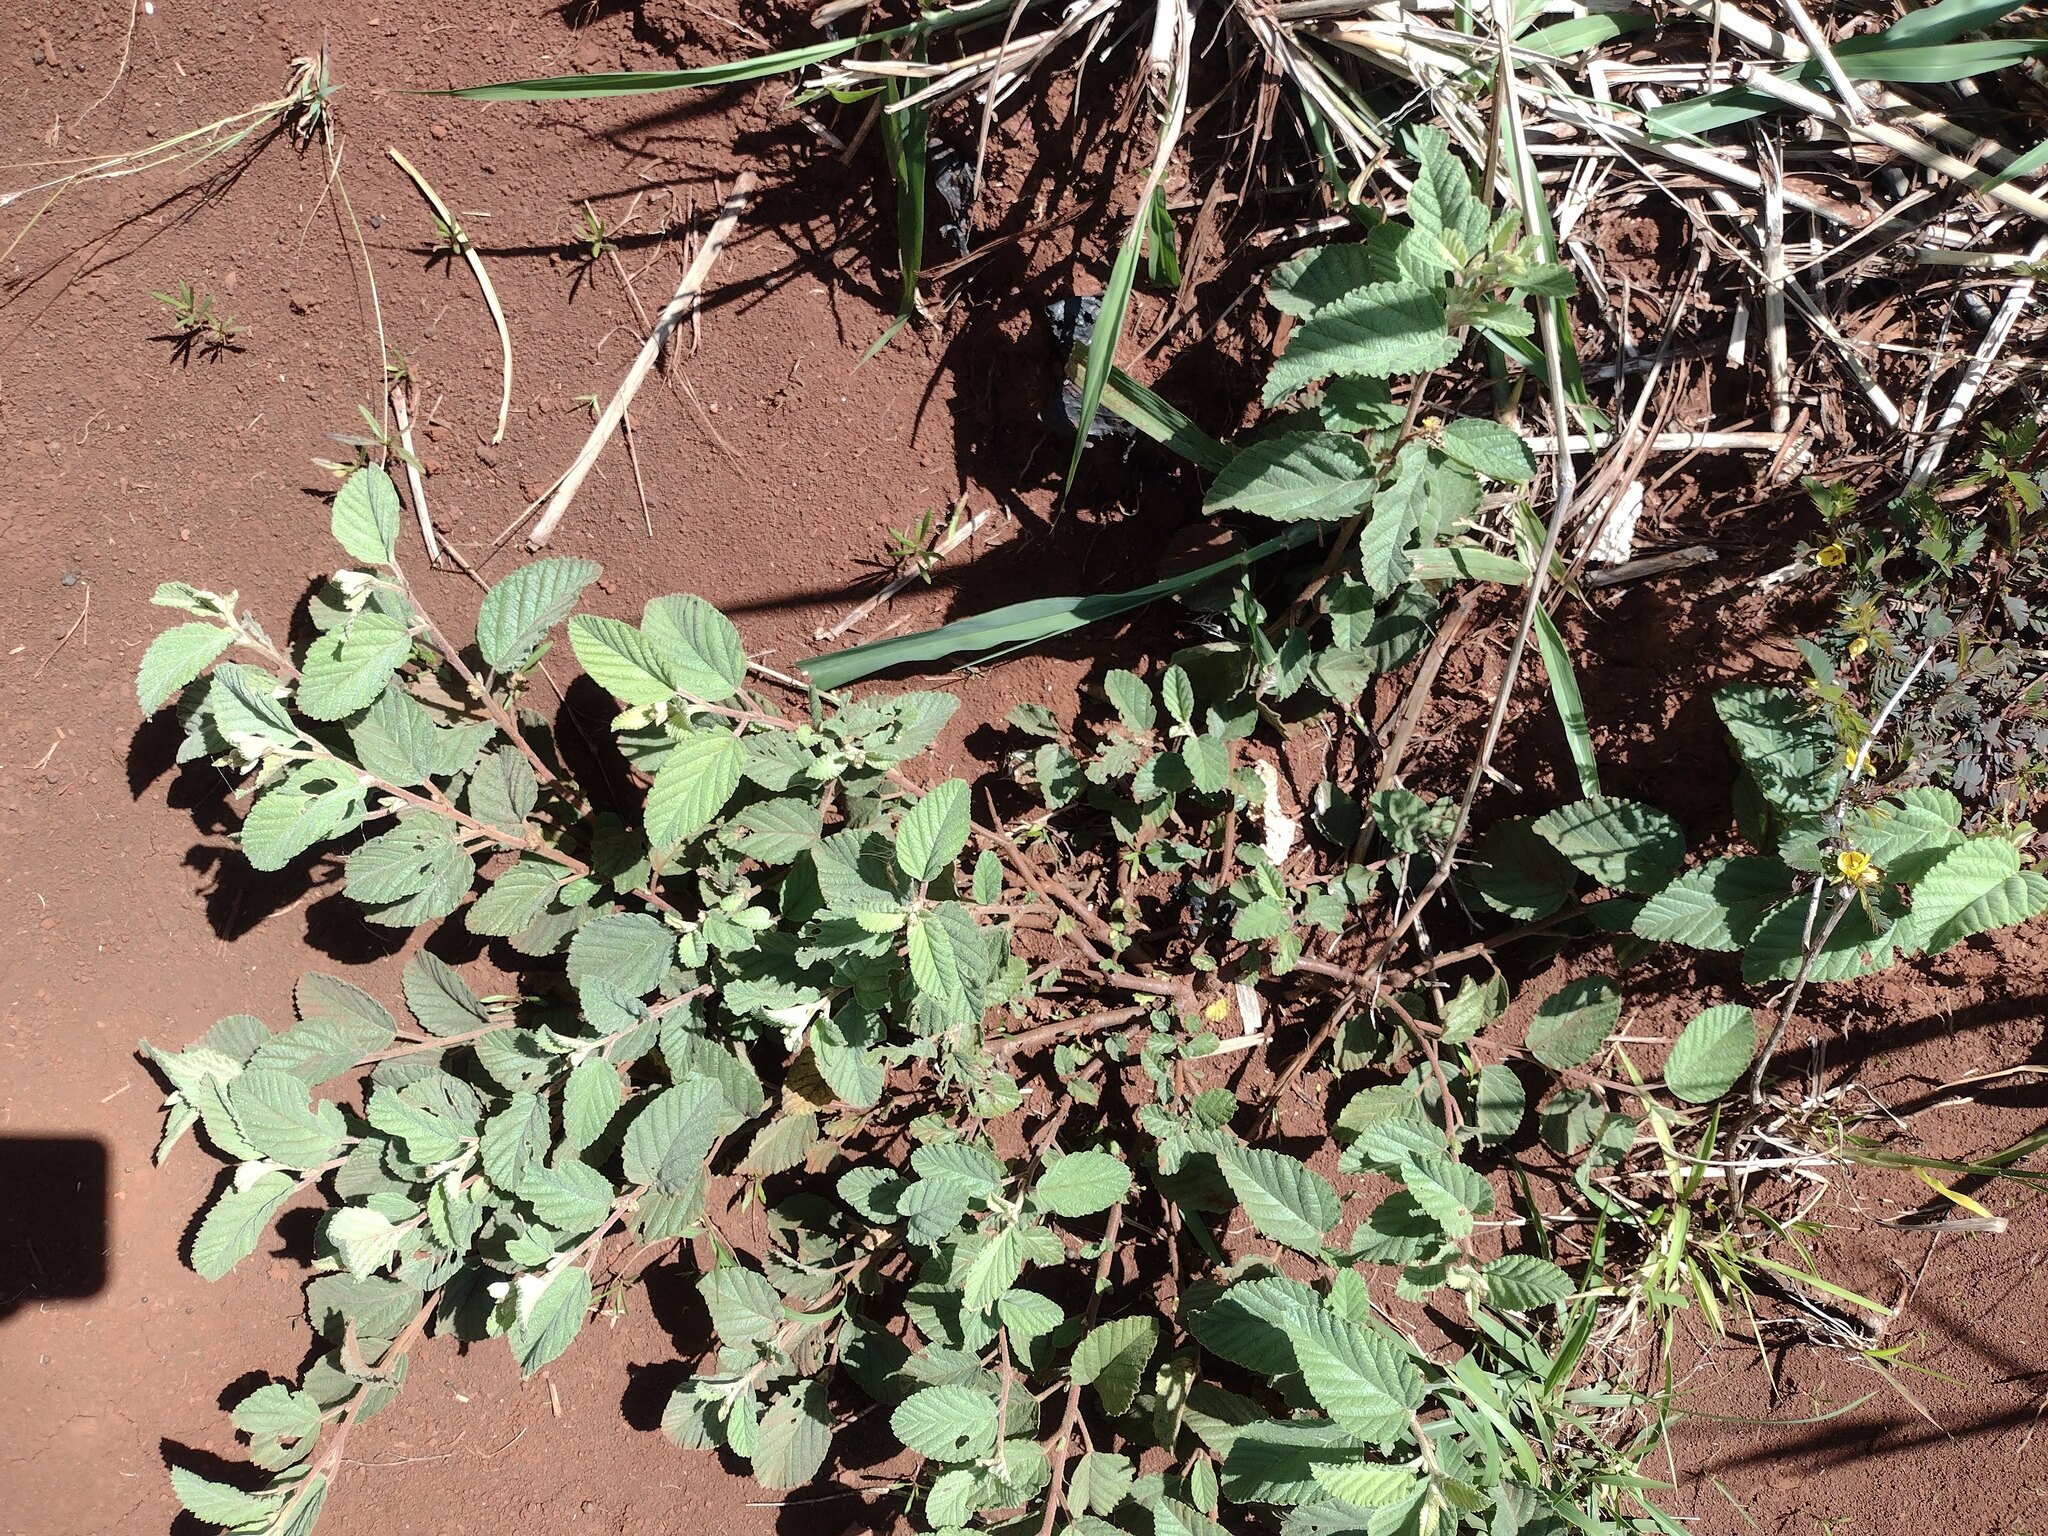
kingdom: Plantae
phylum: Tracheophyta
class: Magnoliopsida
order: Malvales
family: Malvaceae
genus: Waltheria
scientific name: Waltheria indica
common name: Leather-coat
